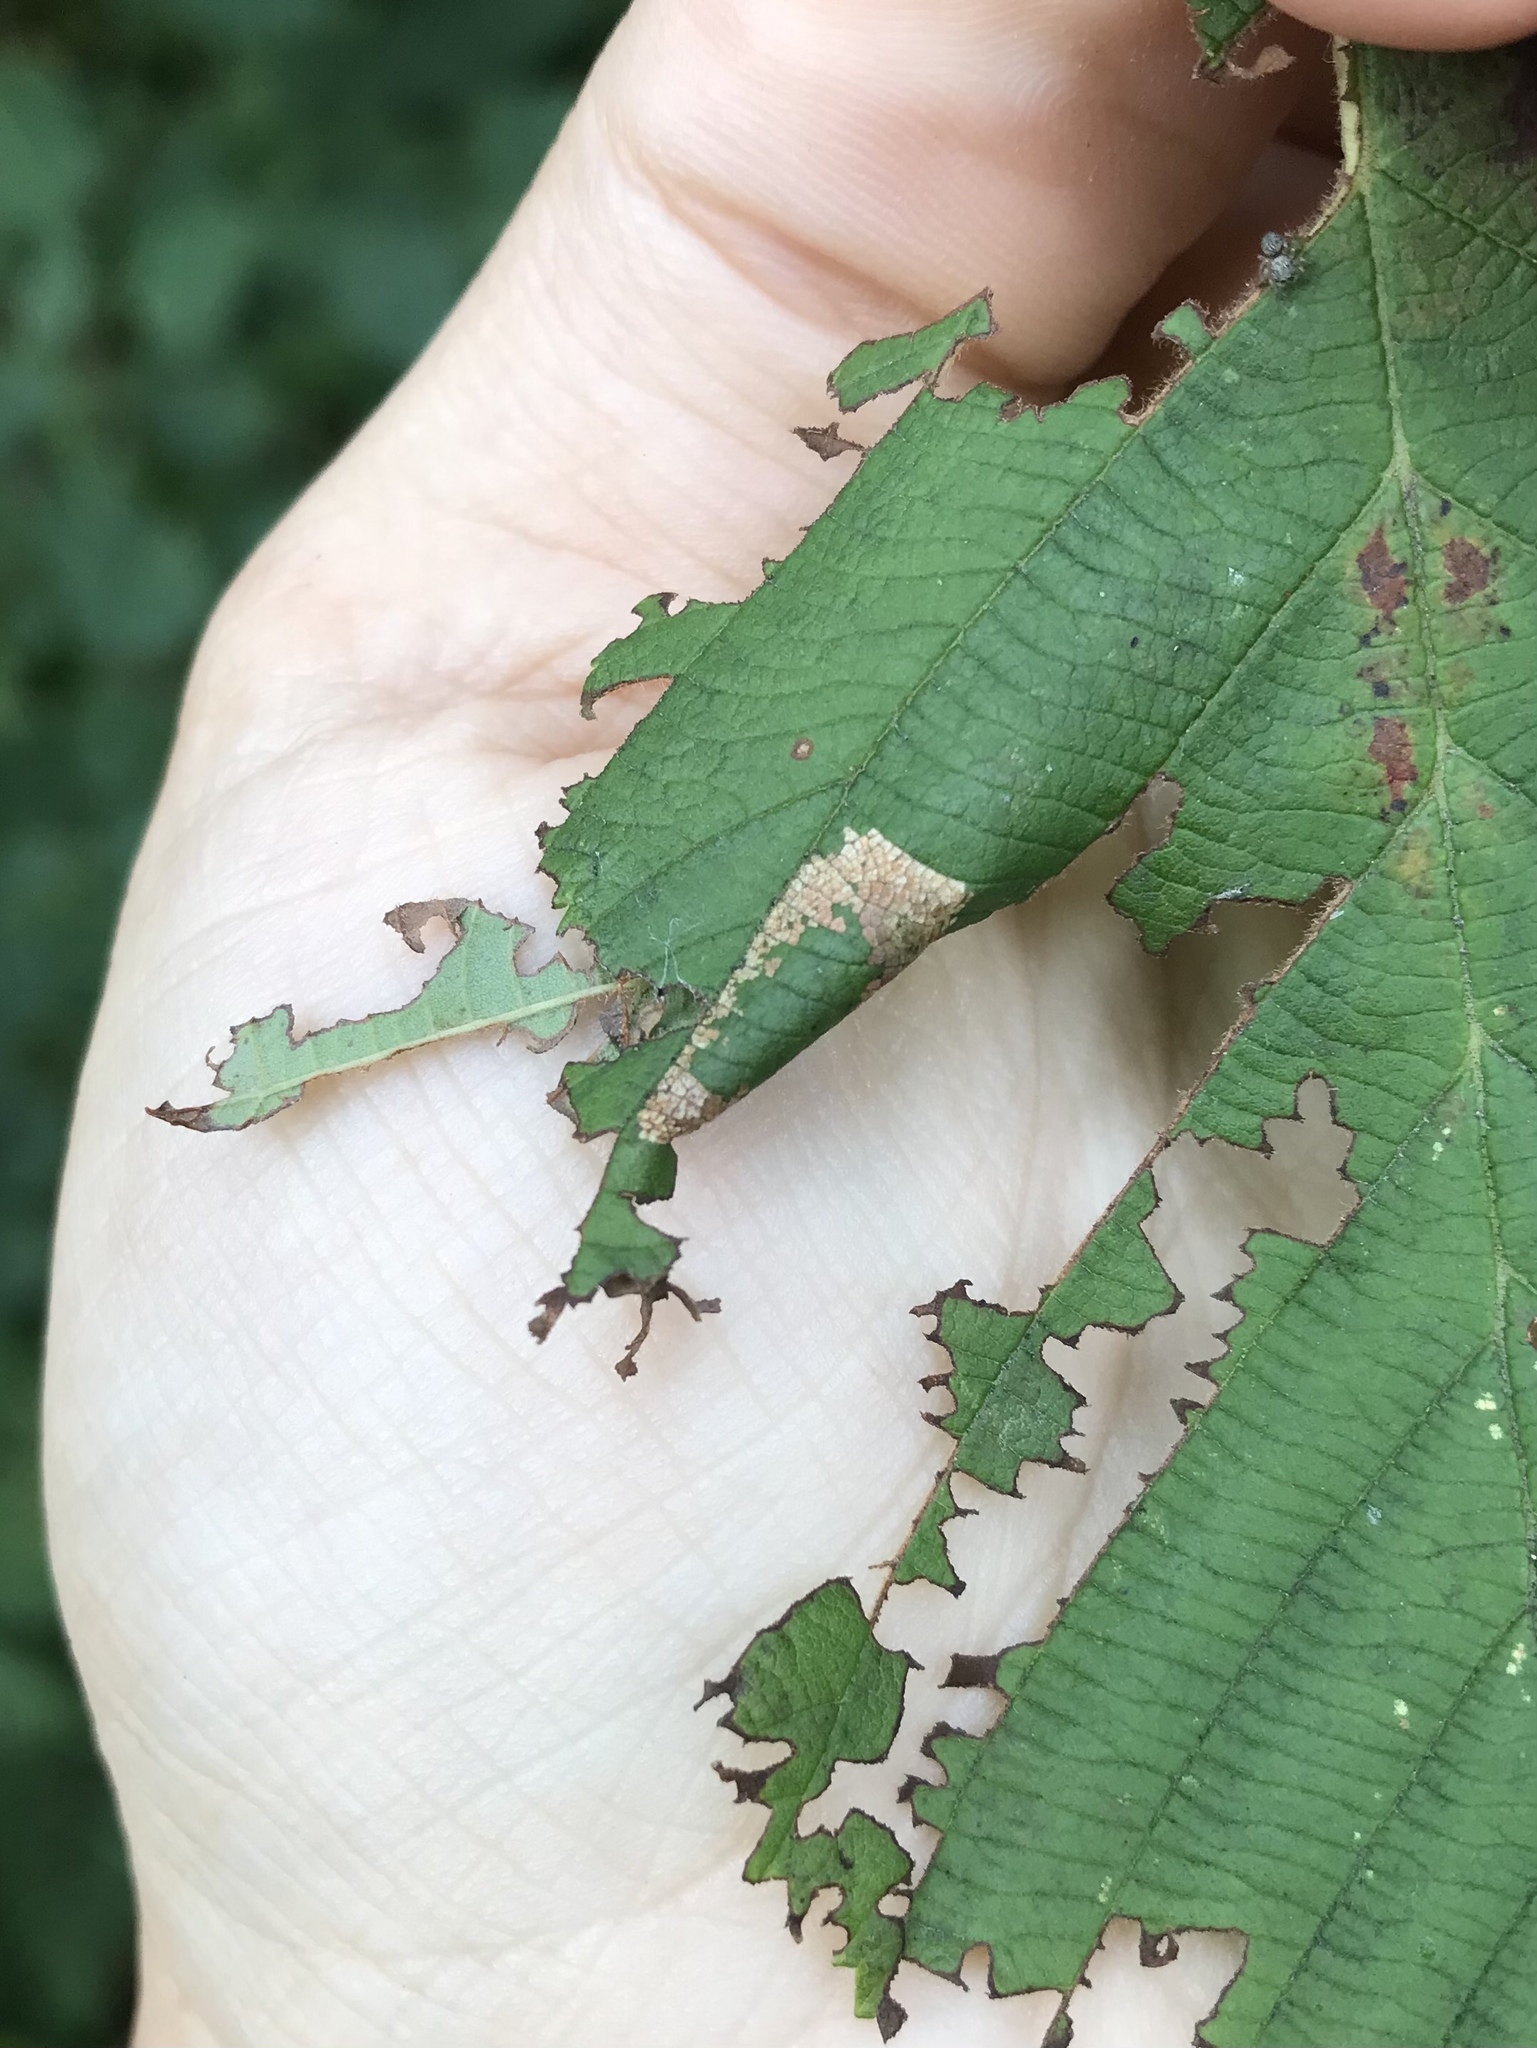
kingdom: Animalia
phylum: Arthropoda
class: Insecta
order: Lepidoptera
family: Gracillariidae
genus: Phyllonorycter
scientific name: Phyllonorycter auronitens
